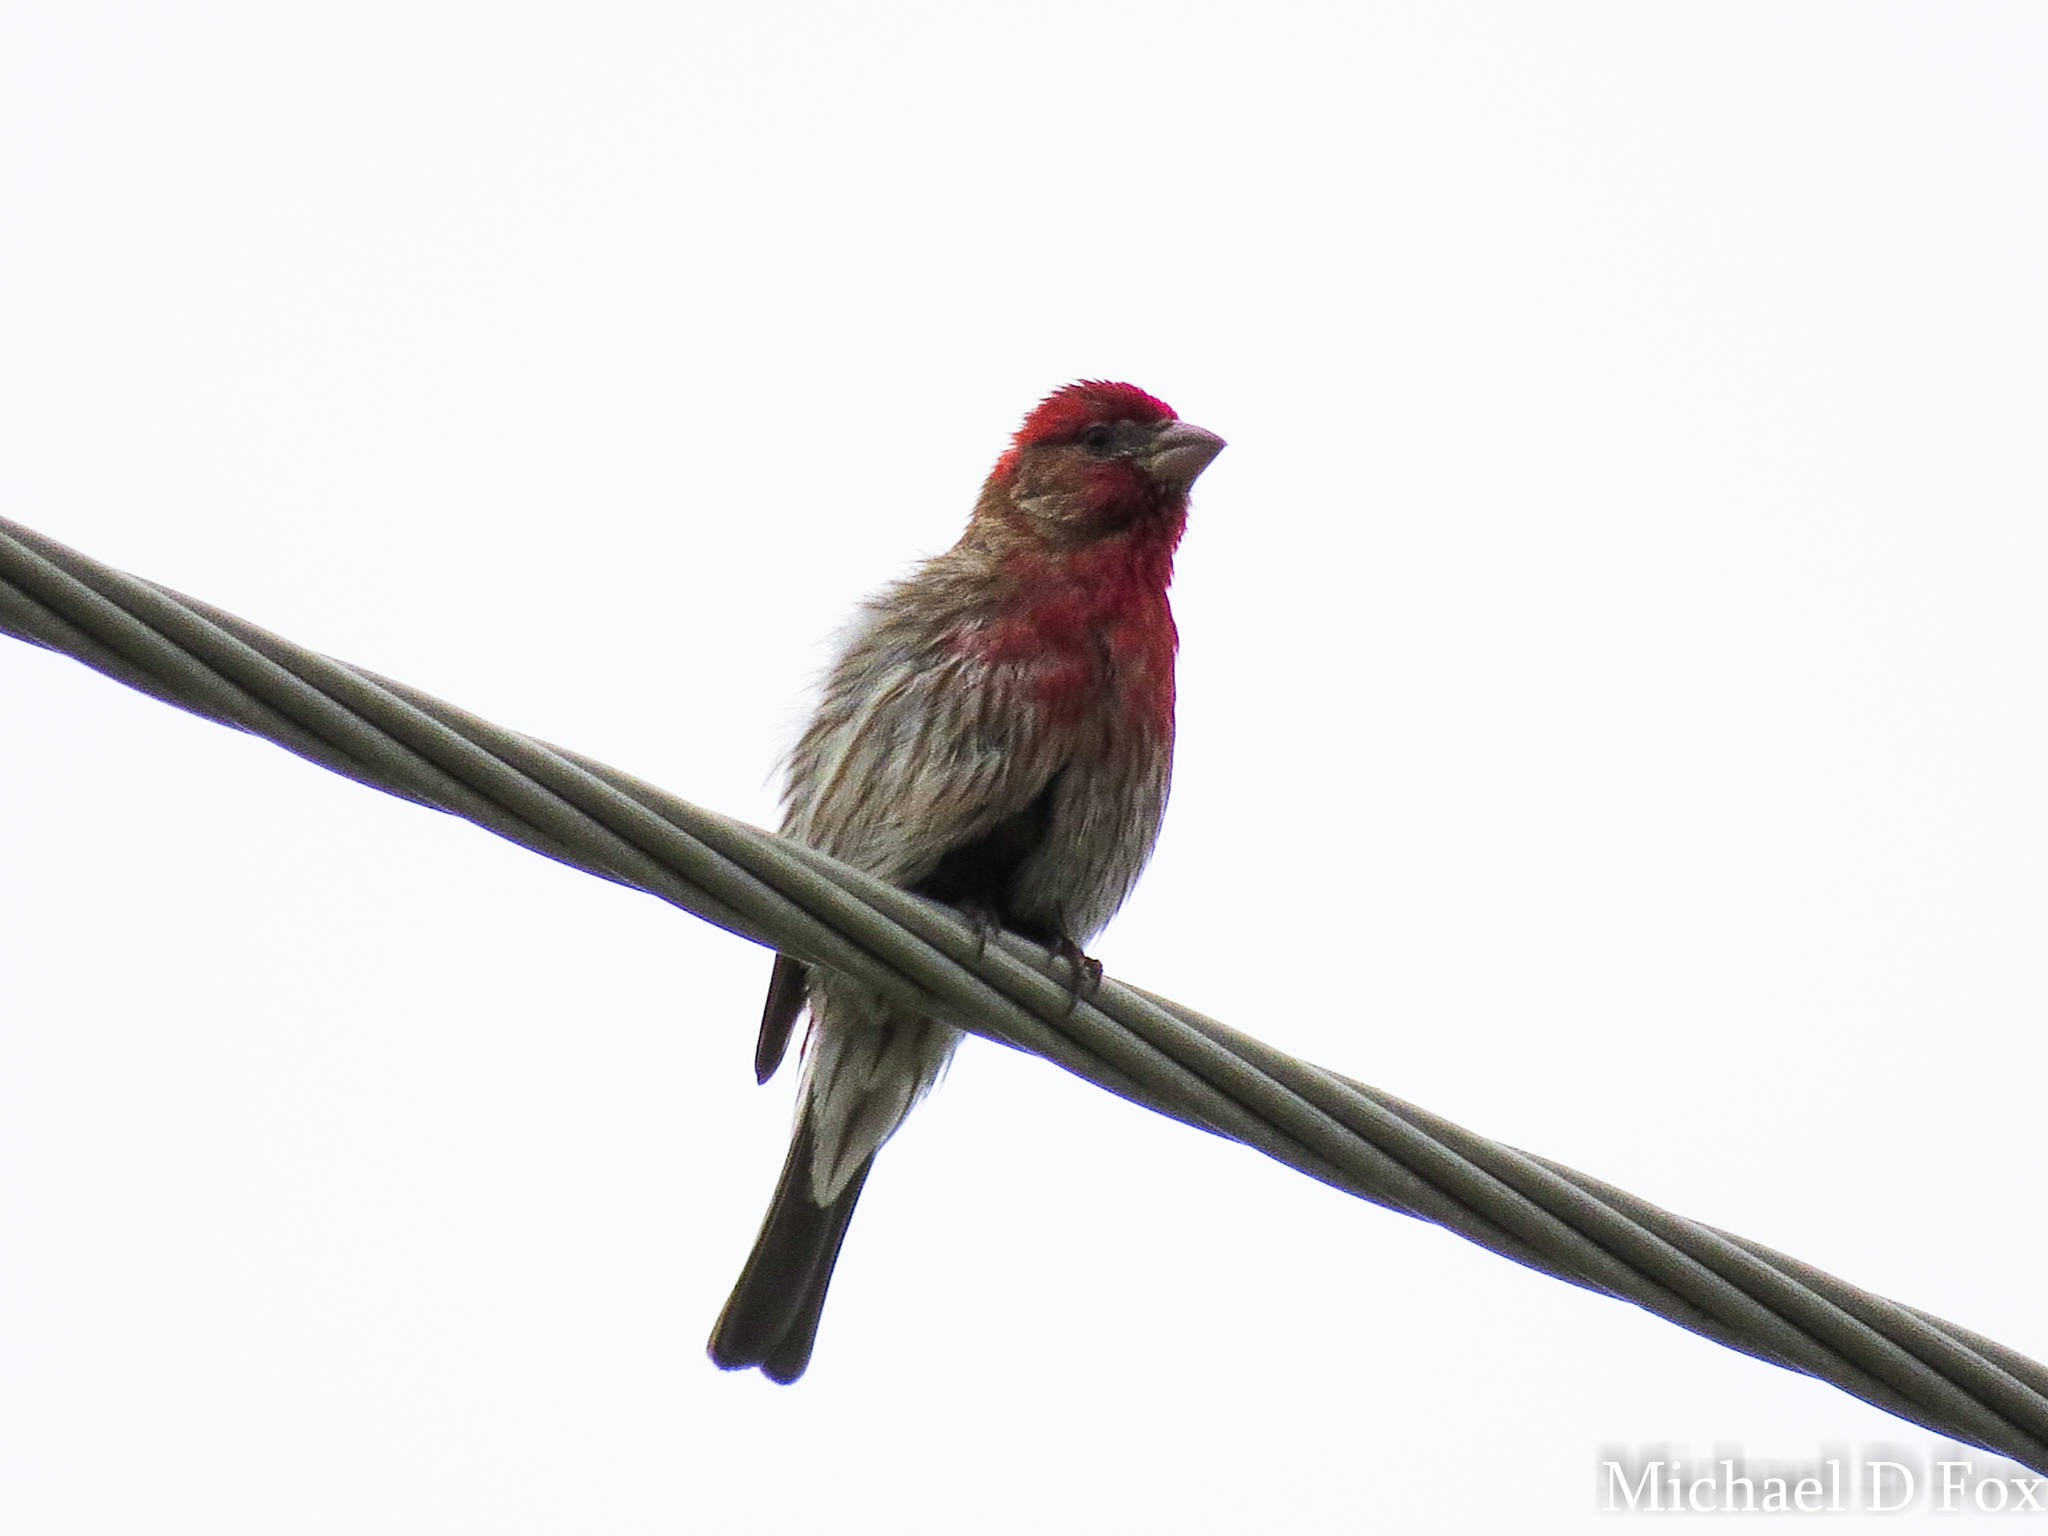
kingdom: Animalia
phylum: Chordata
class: Aves
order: Passeriformes
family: Fringillidae
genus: Haemorhous
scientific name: Haemorhous mexicanus
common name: House finch
